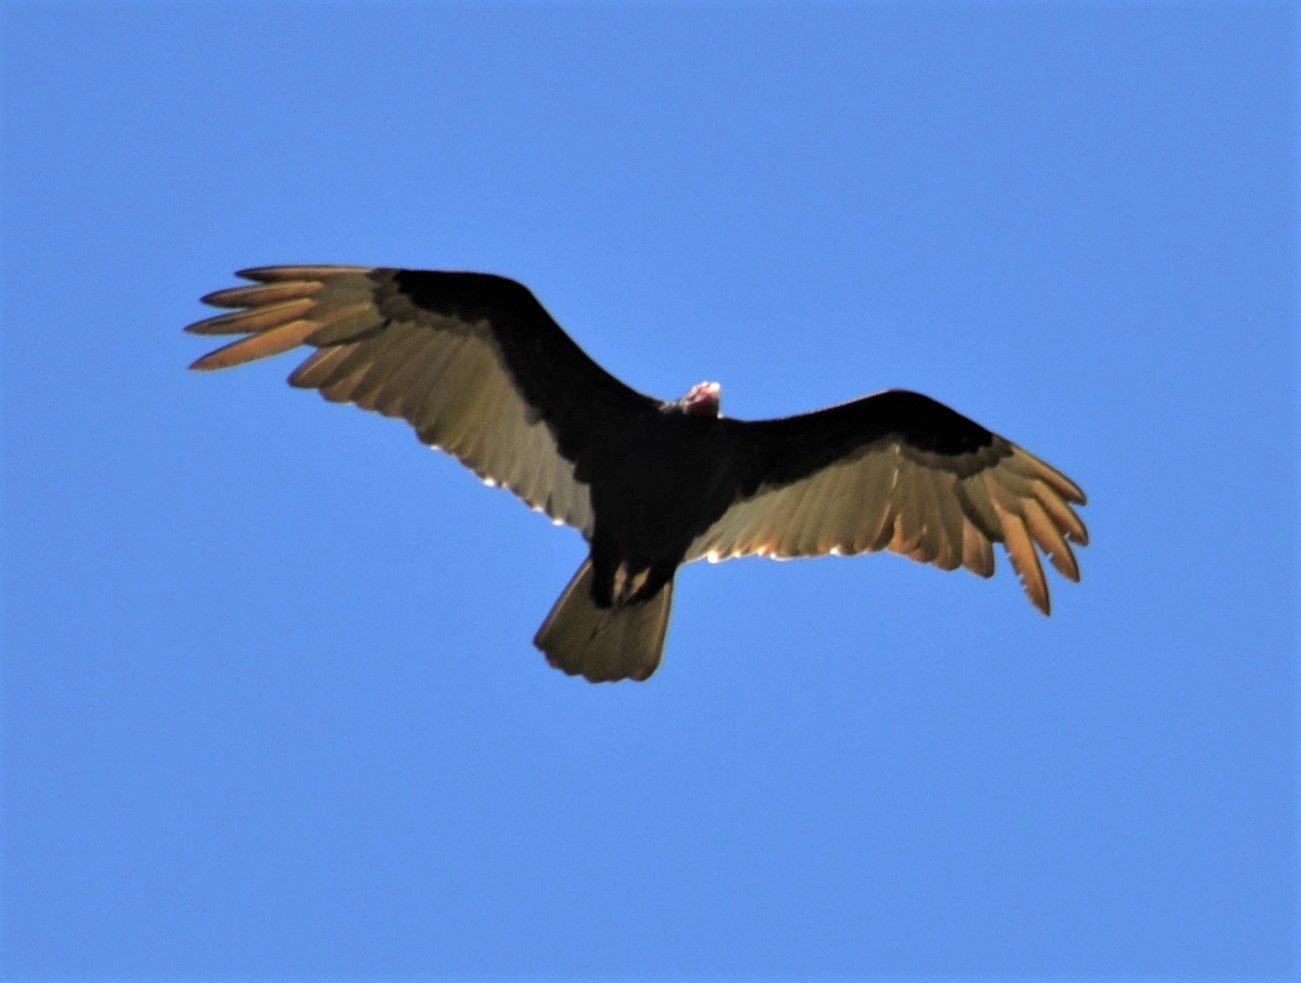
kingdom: Animalia
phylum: Chordata
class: Aves
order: Accipitriformes
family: Cathartidae
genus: Cathartes
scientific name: Cathartes aura
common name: Turkey vulture
